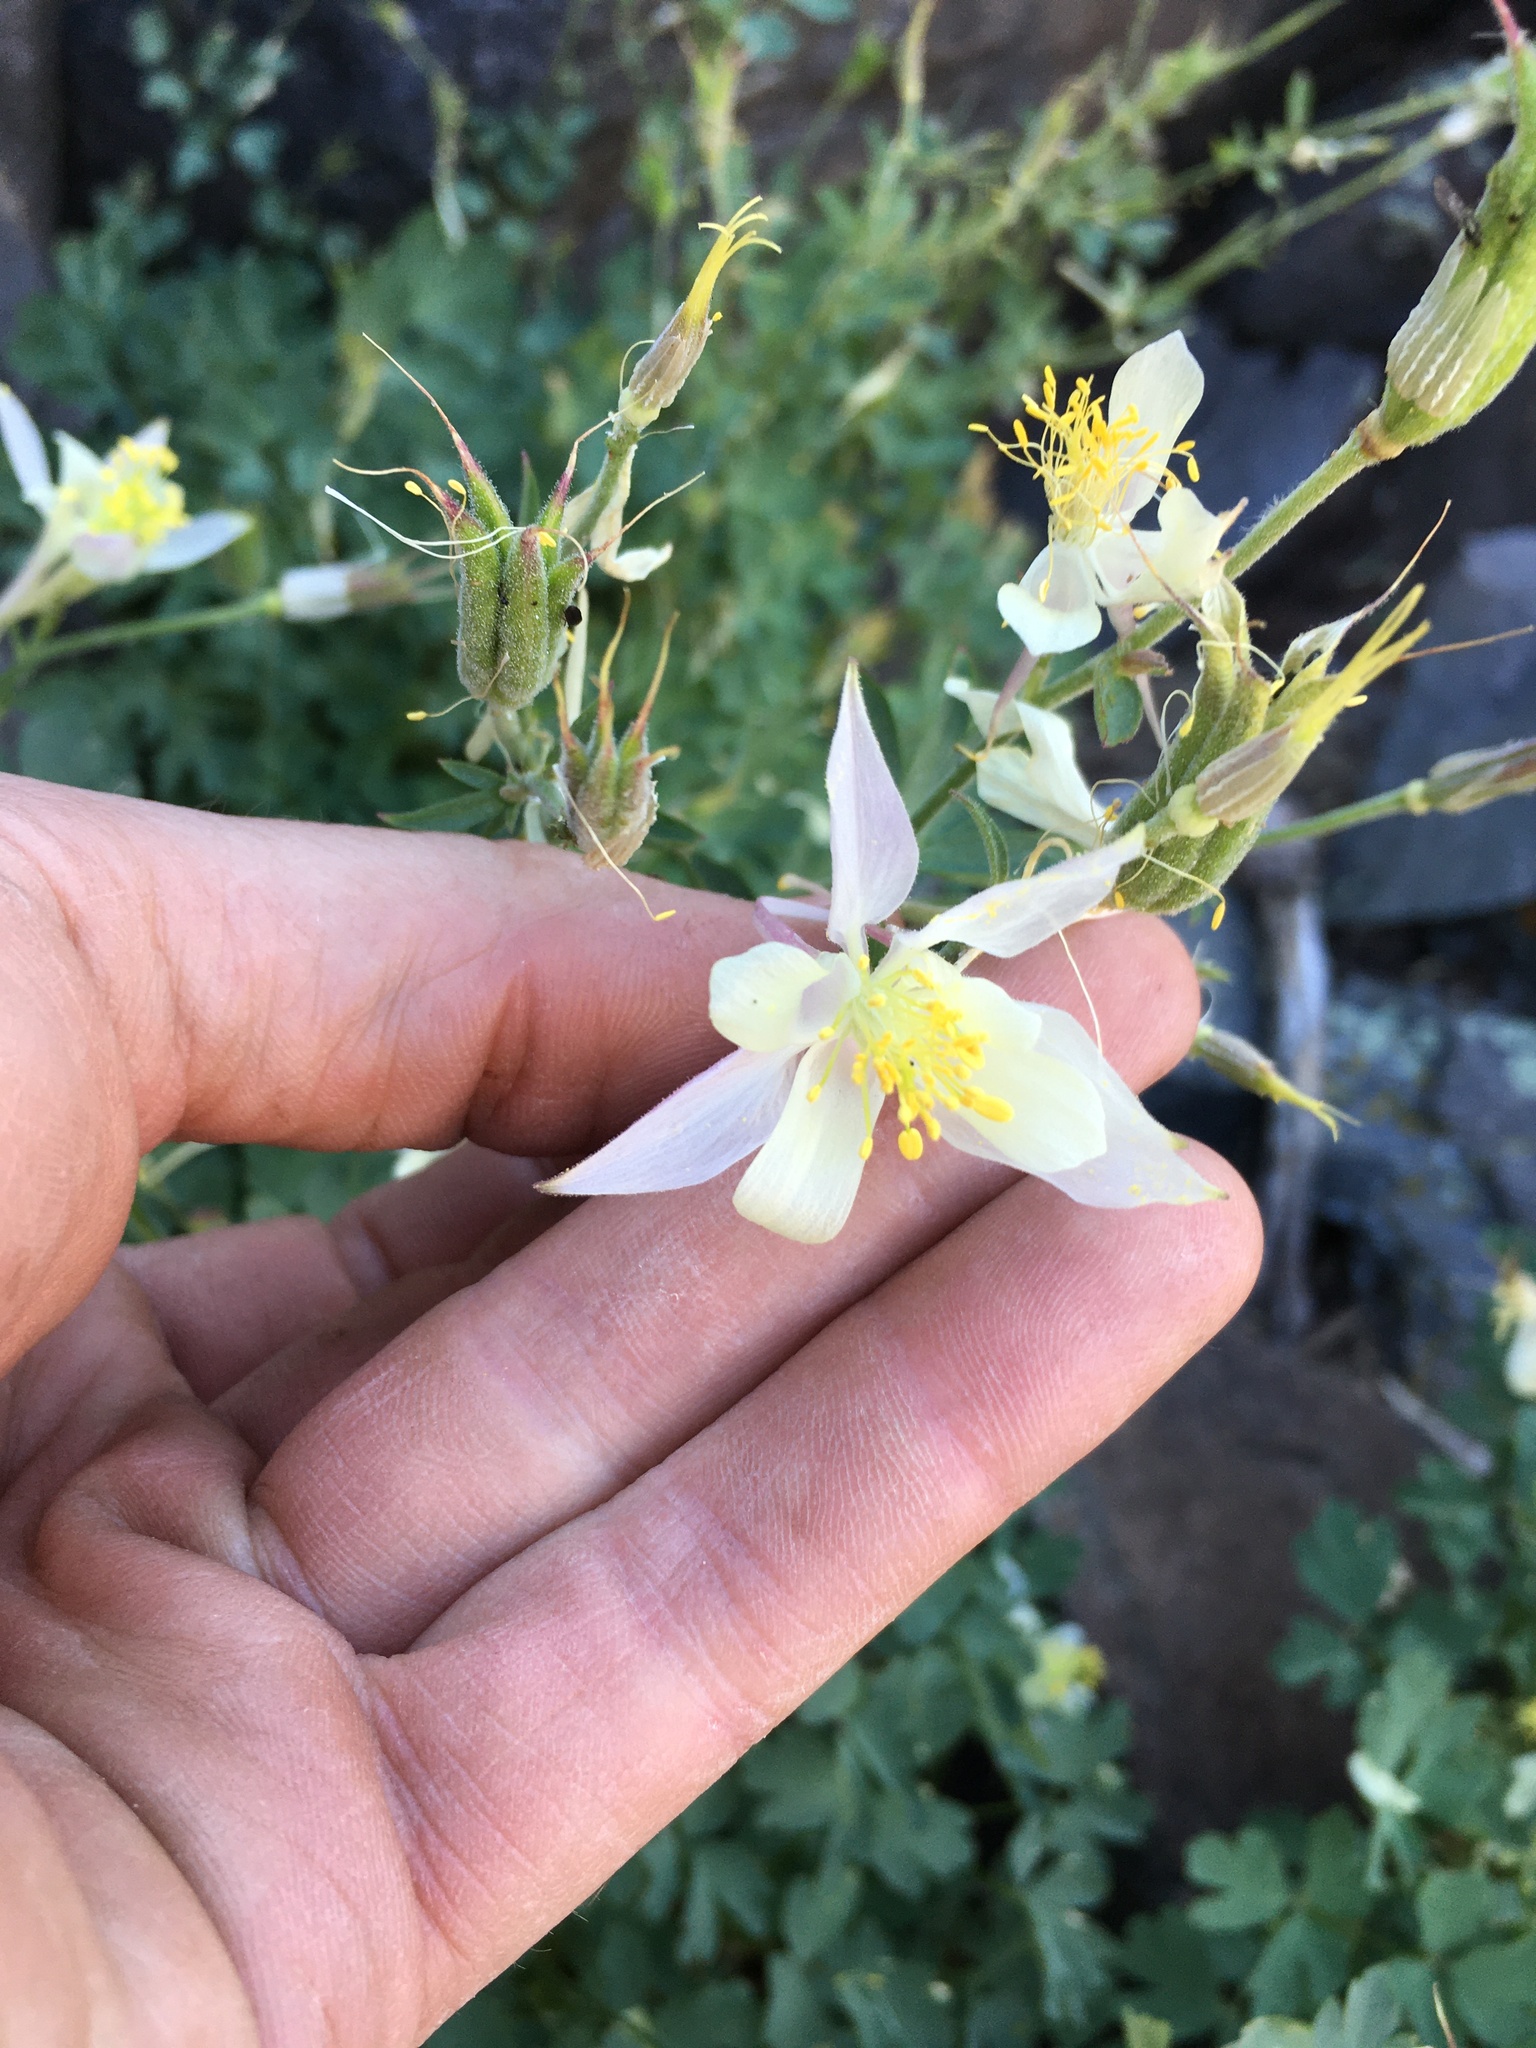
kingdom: Plantae
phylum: Tracheophyta
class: Magnoliopsida
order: Ranunculales
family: Ranunculaceae
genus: Aquilegia
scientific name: Aquilegia pubescens
